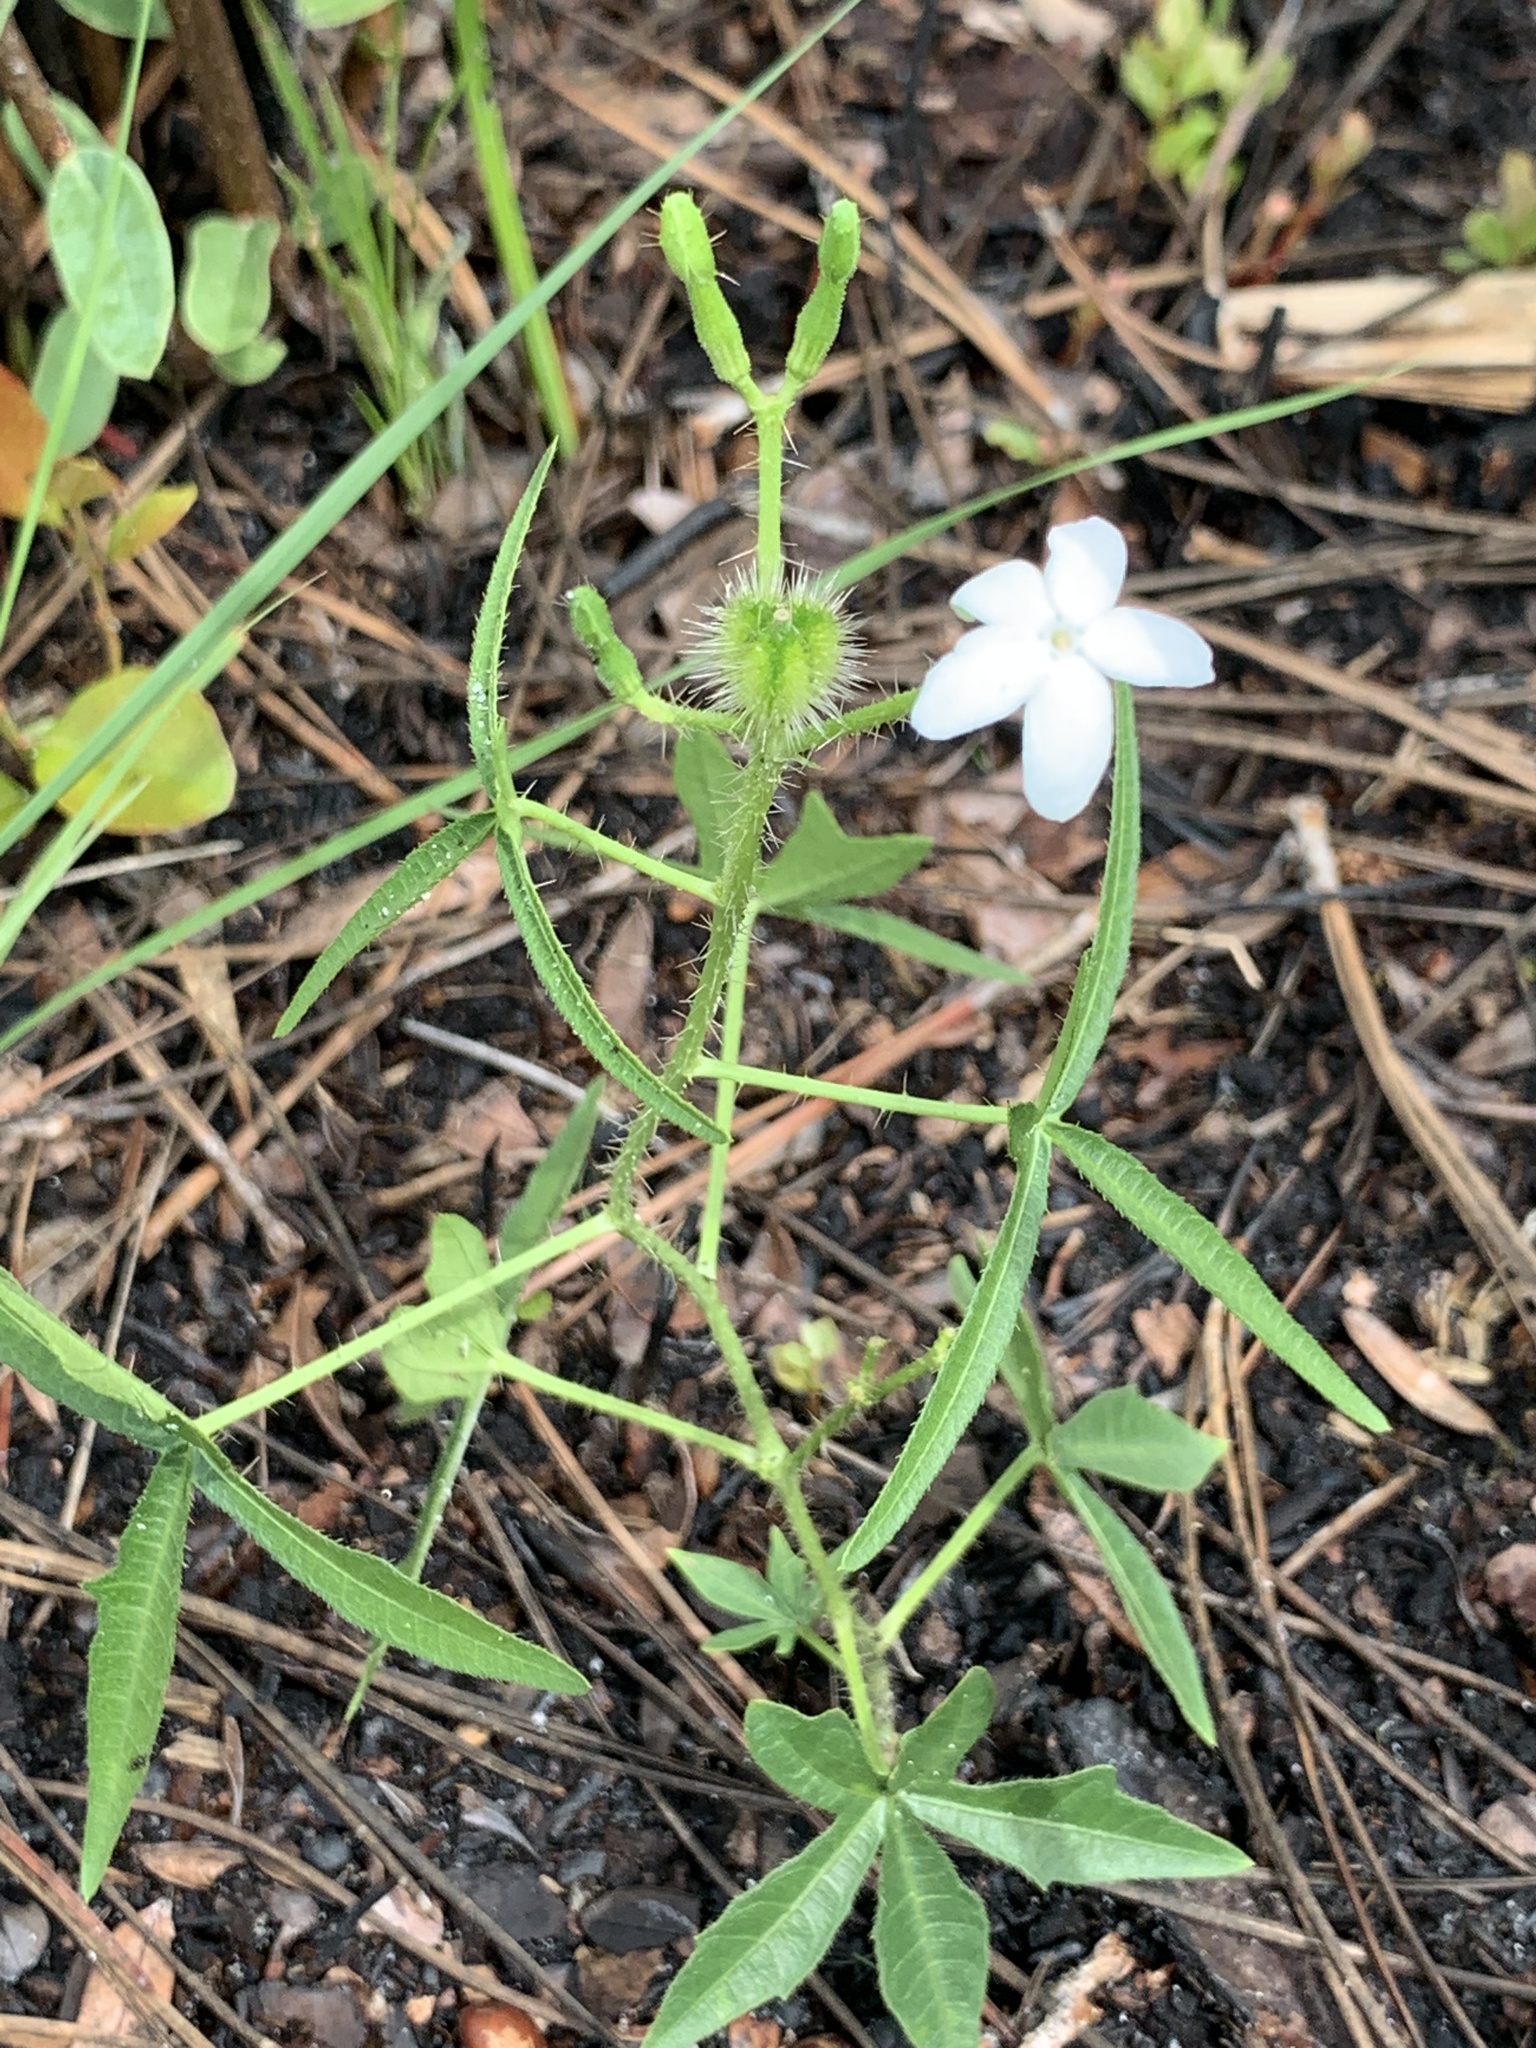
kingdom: Plantae
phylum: Tracheophyta
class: Magnoliopsida
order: Malpighiales
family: Euphorbiaceae
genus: Cnidoscolus
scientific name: Cnidoscolus stimulosus
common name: Bull-nettle
